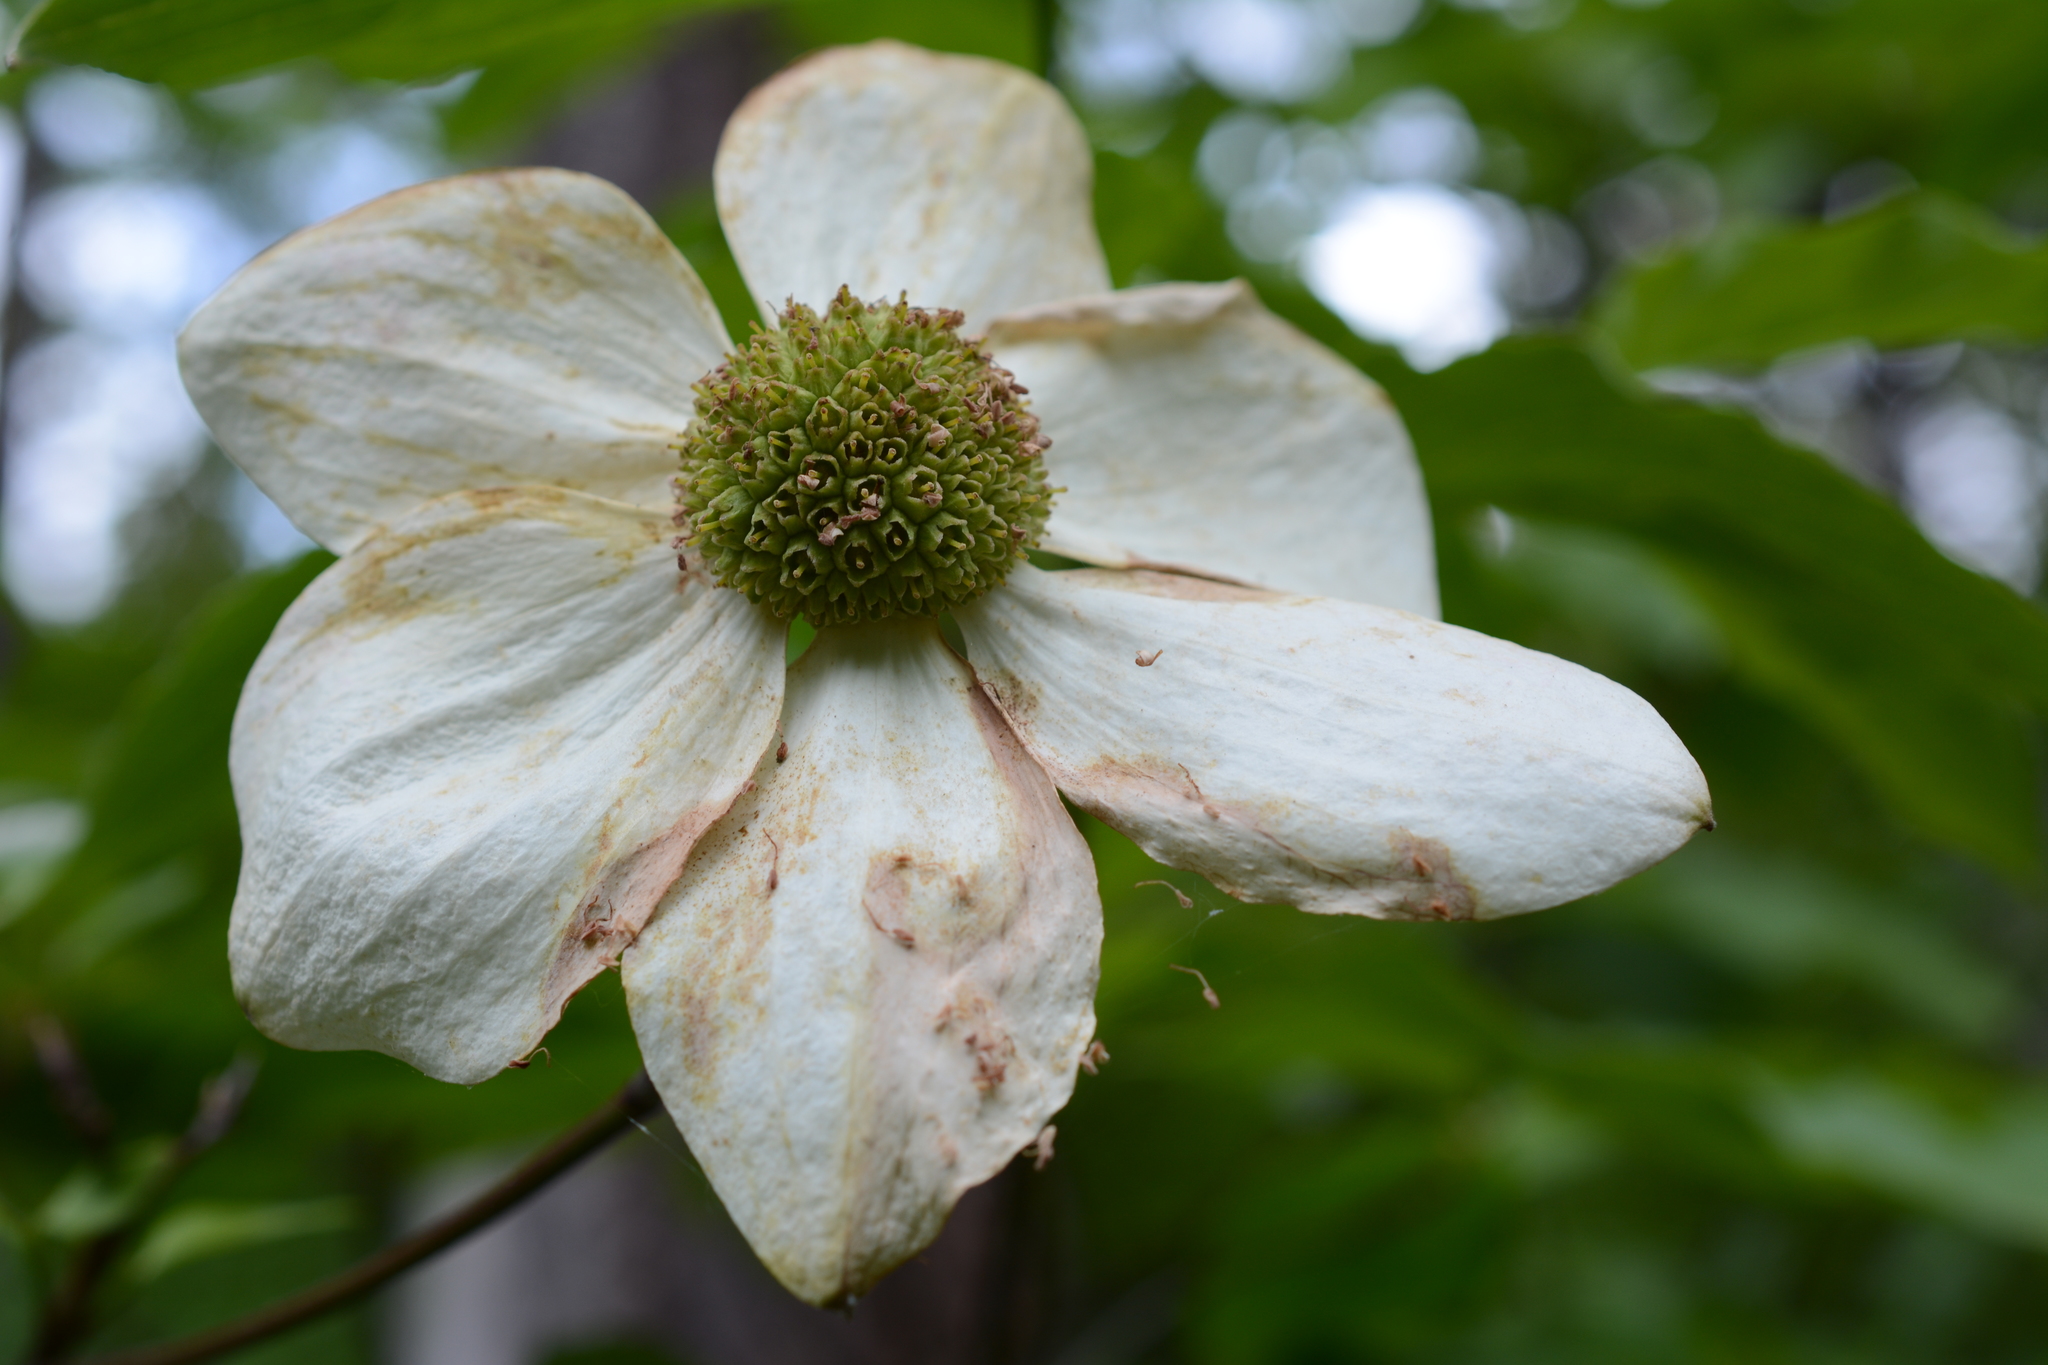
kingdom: Plantae
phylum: Tracheophyta
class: Magnoliopsida
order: Cornales
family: Cornaceae
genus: Cornus
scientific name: Cornus nuttallii
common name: Pacific dogwood
